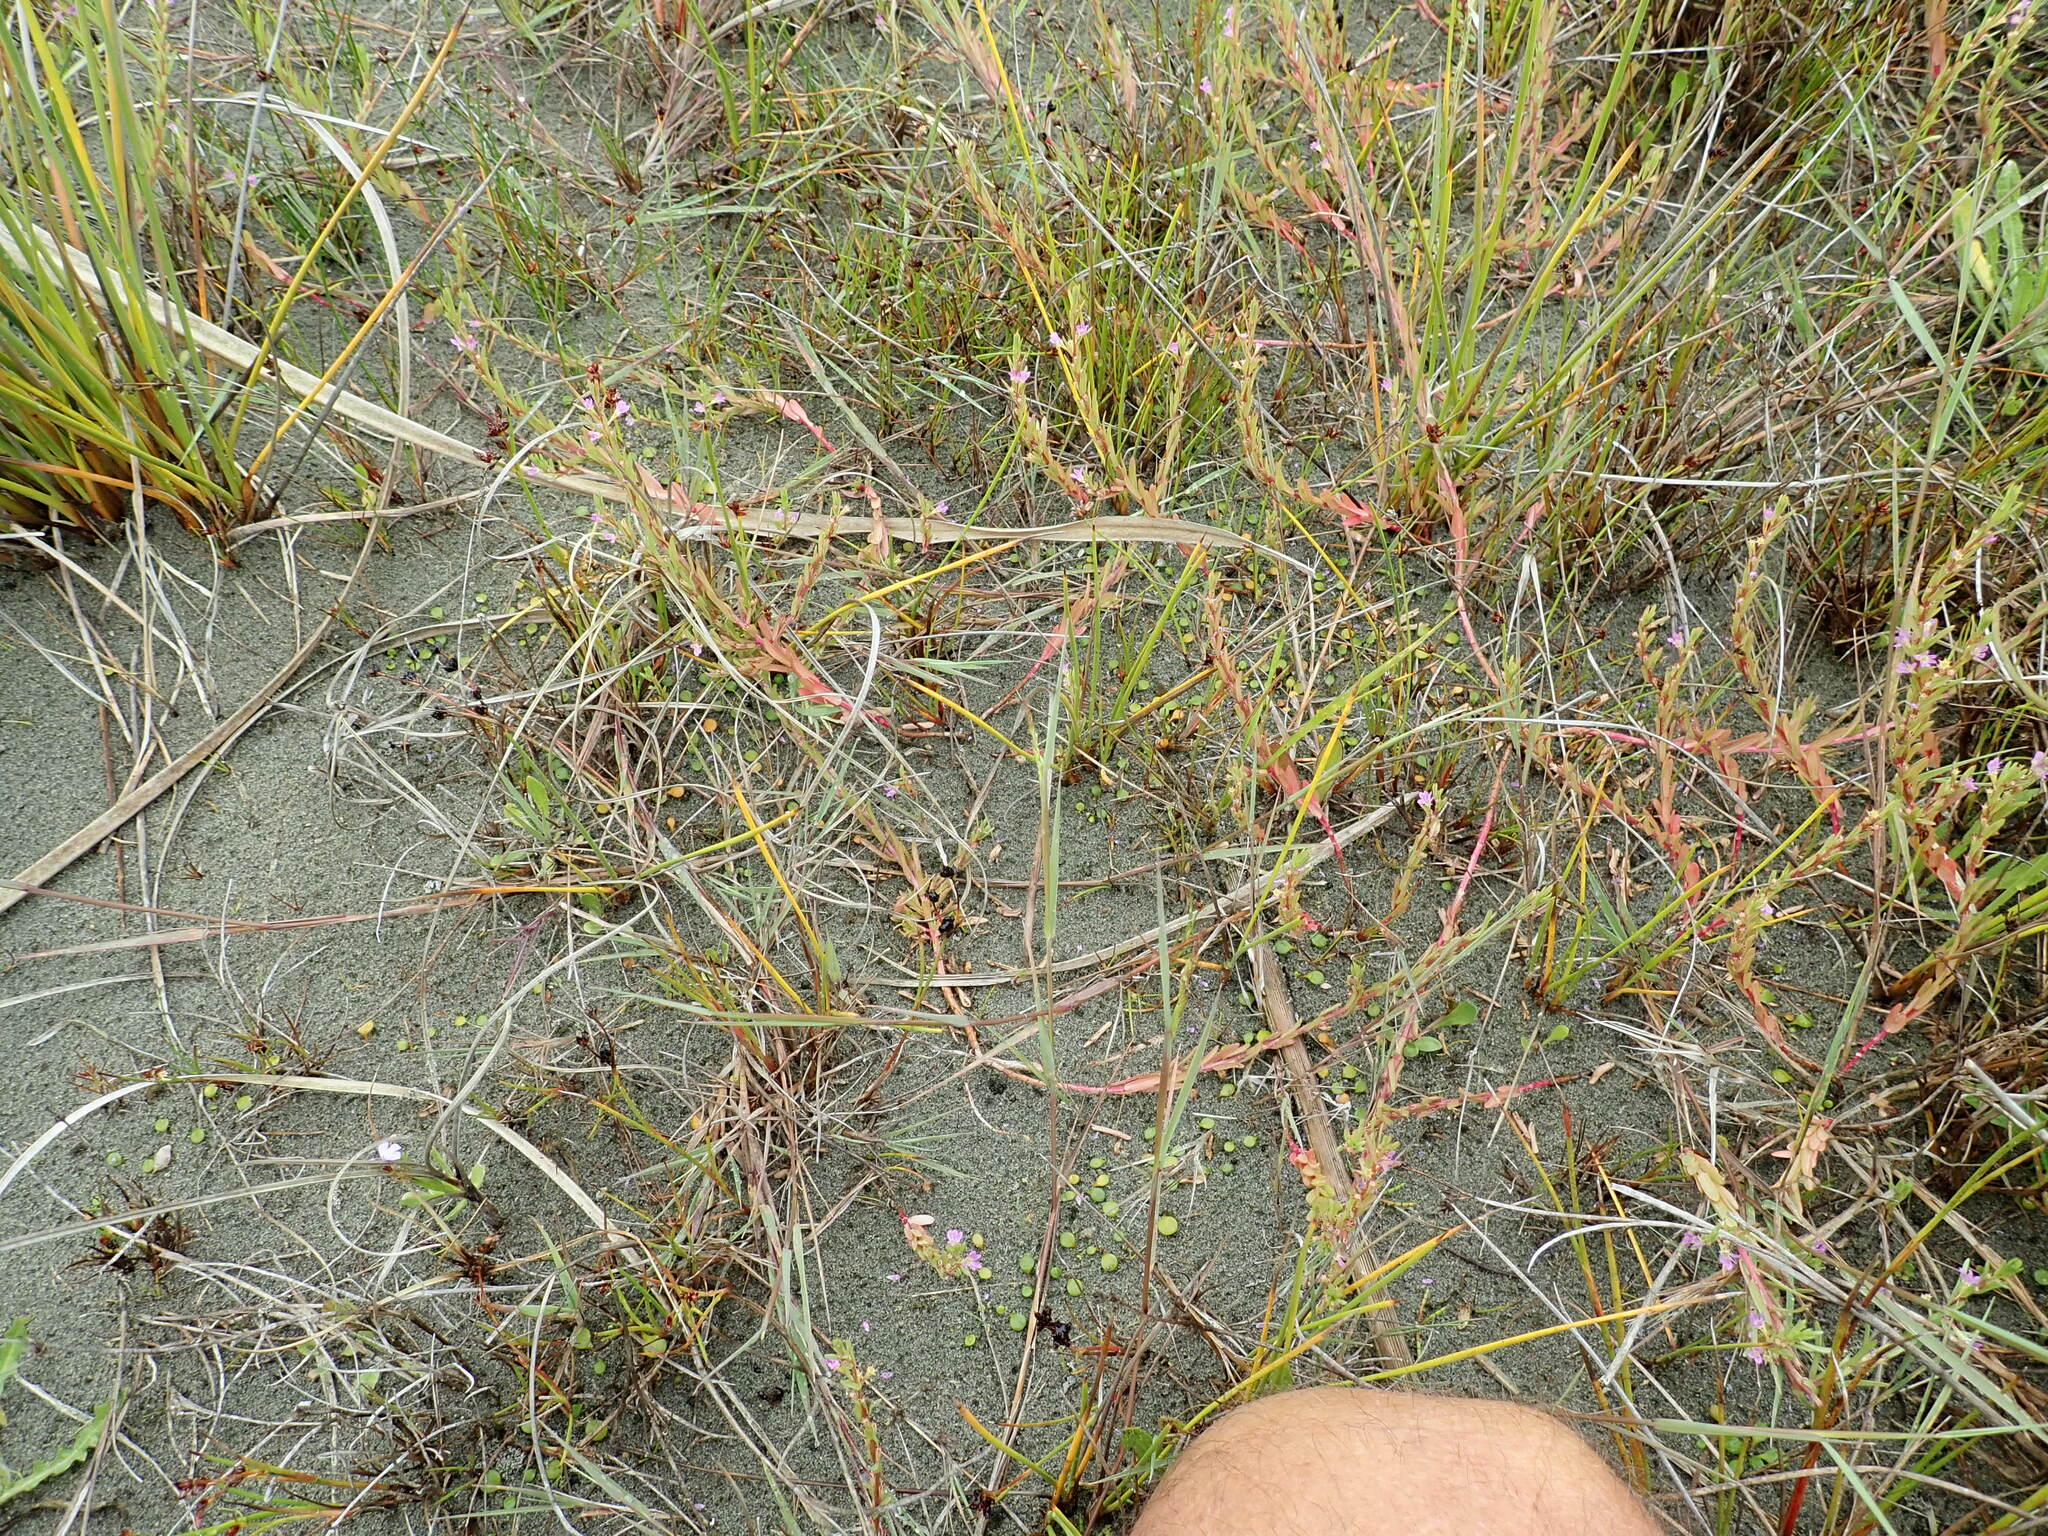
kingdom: Plantae
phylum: Tracheophyta
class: Magnoliopsida
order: Myrtales
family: Lythraceae
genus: Lythrum
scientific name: Lythrum hyssopifolia
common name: Grass-poly
